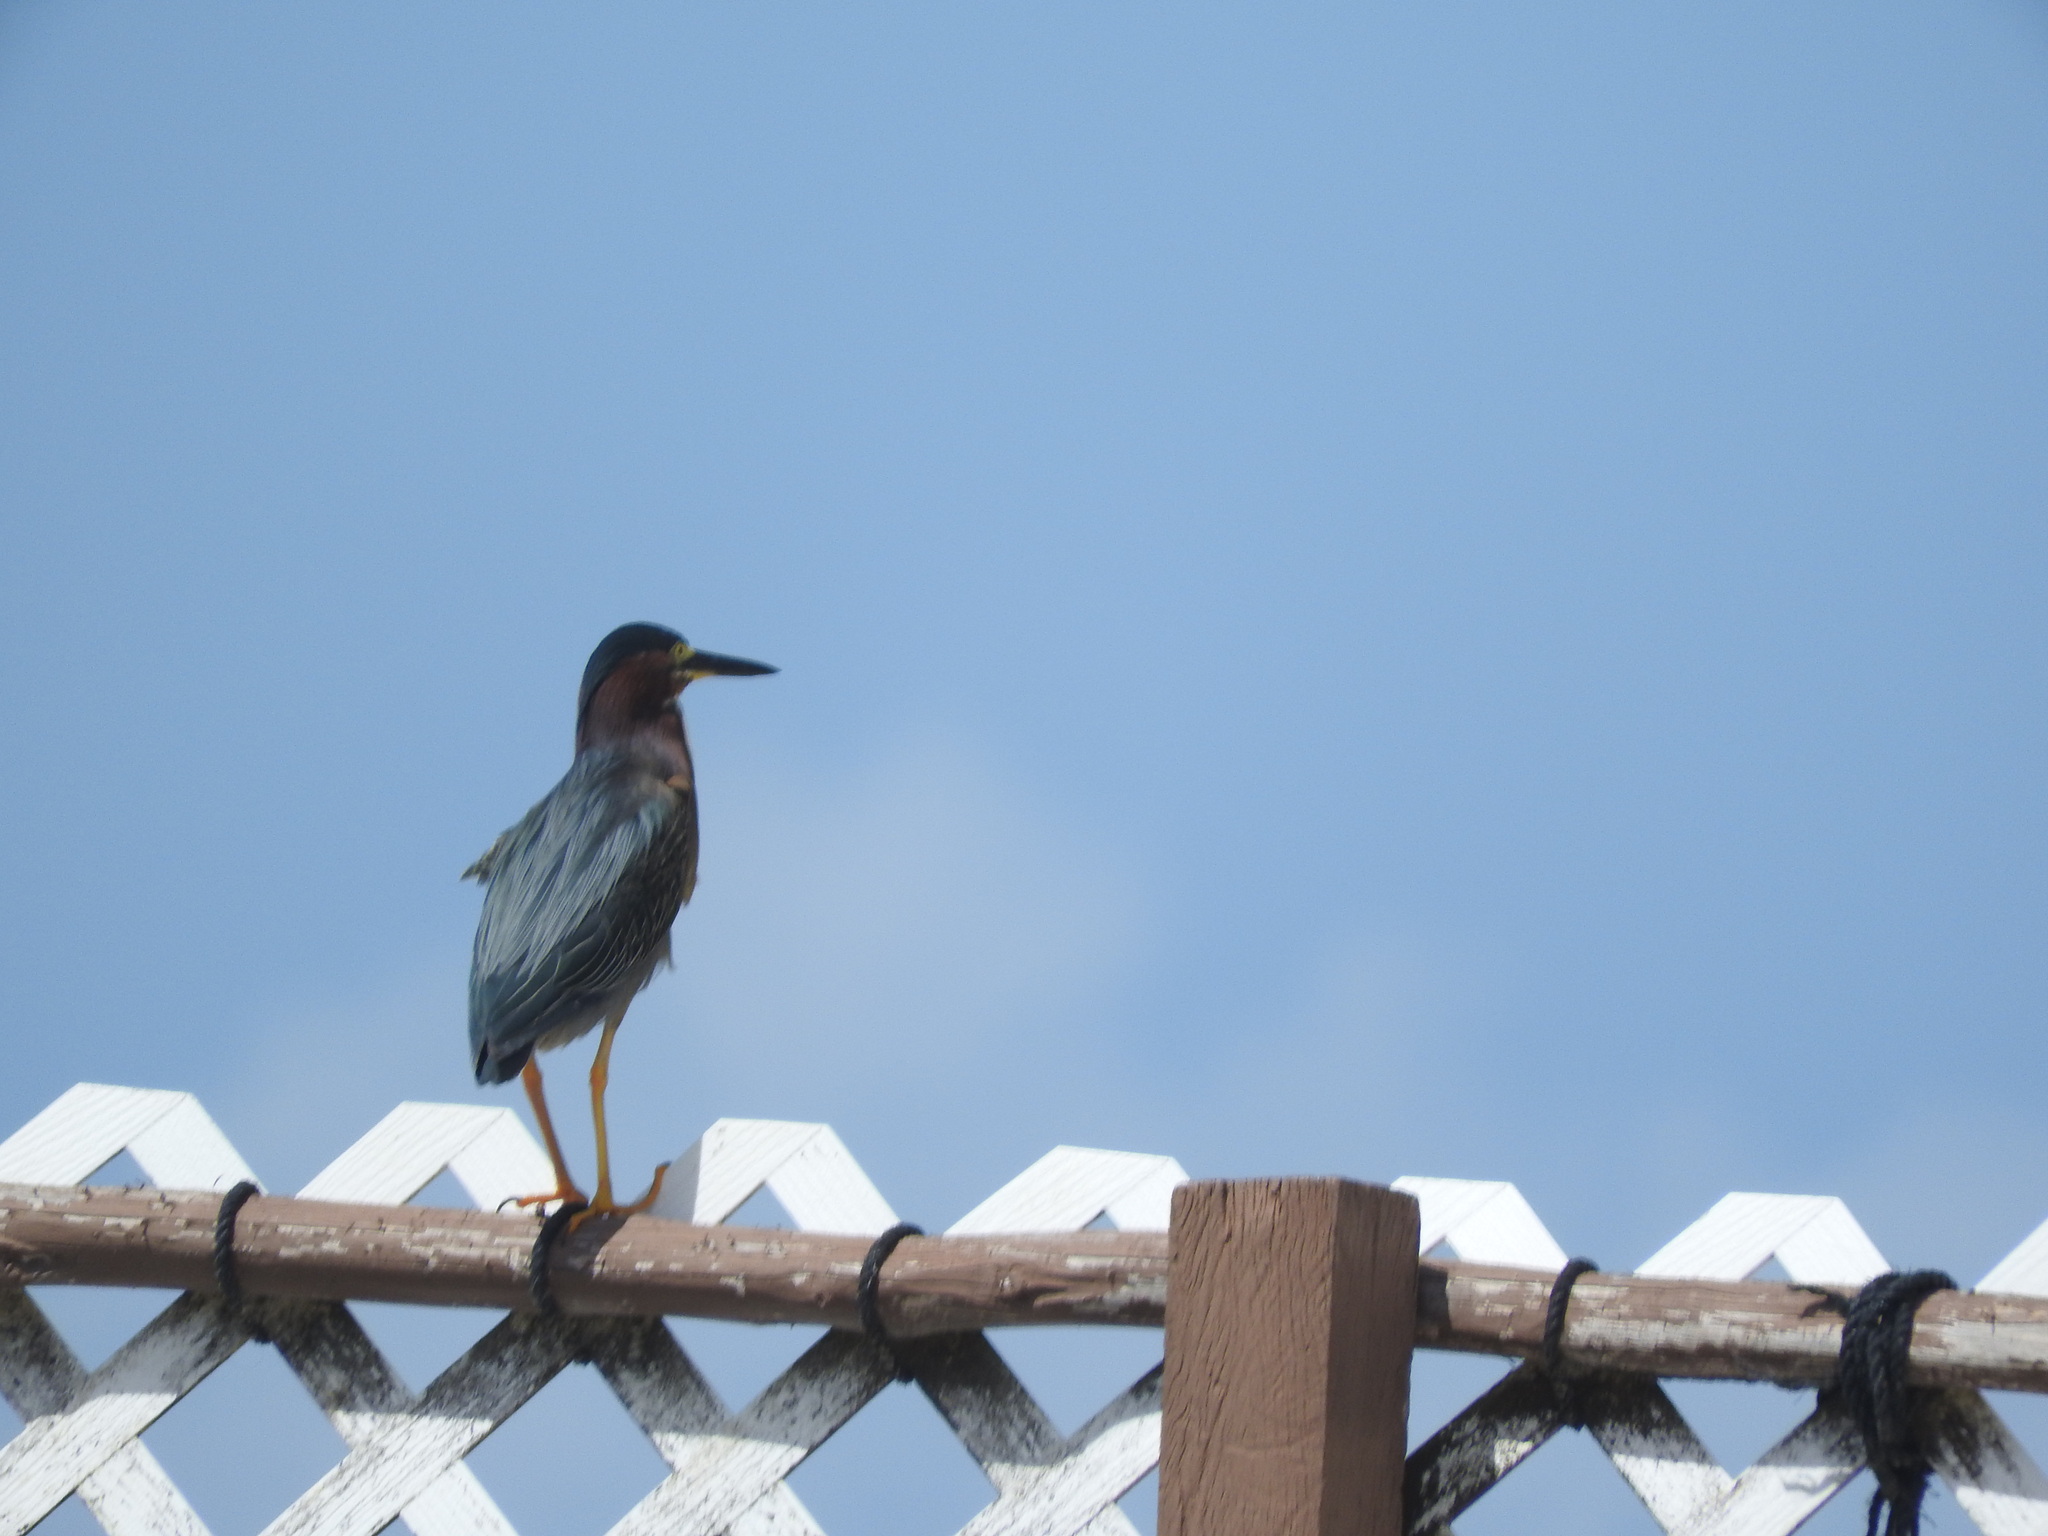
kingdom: Animalia
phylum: Chordata
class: Aves
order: Pelecaniformes
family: Ardeidae
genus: Butorides
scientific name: Butorides virescens
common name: Green heron
